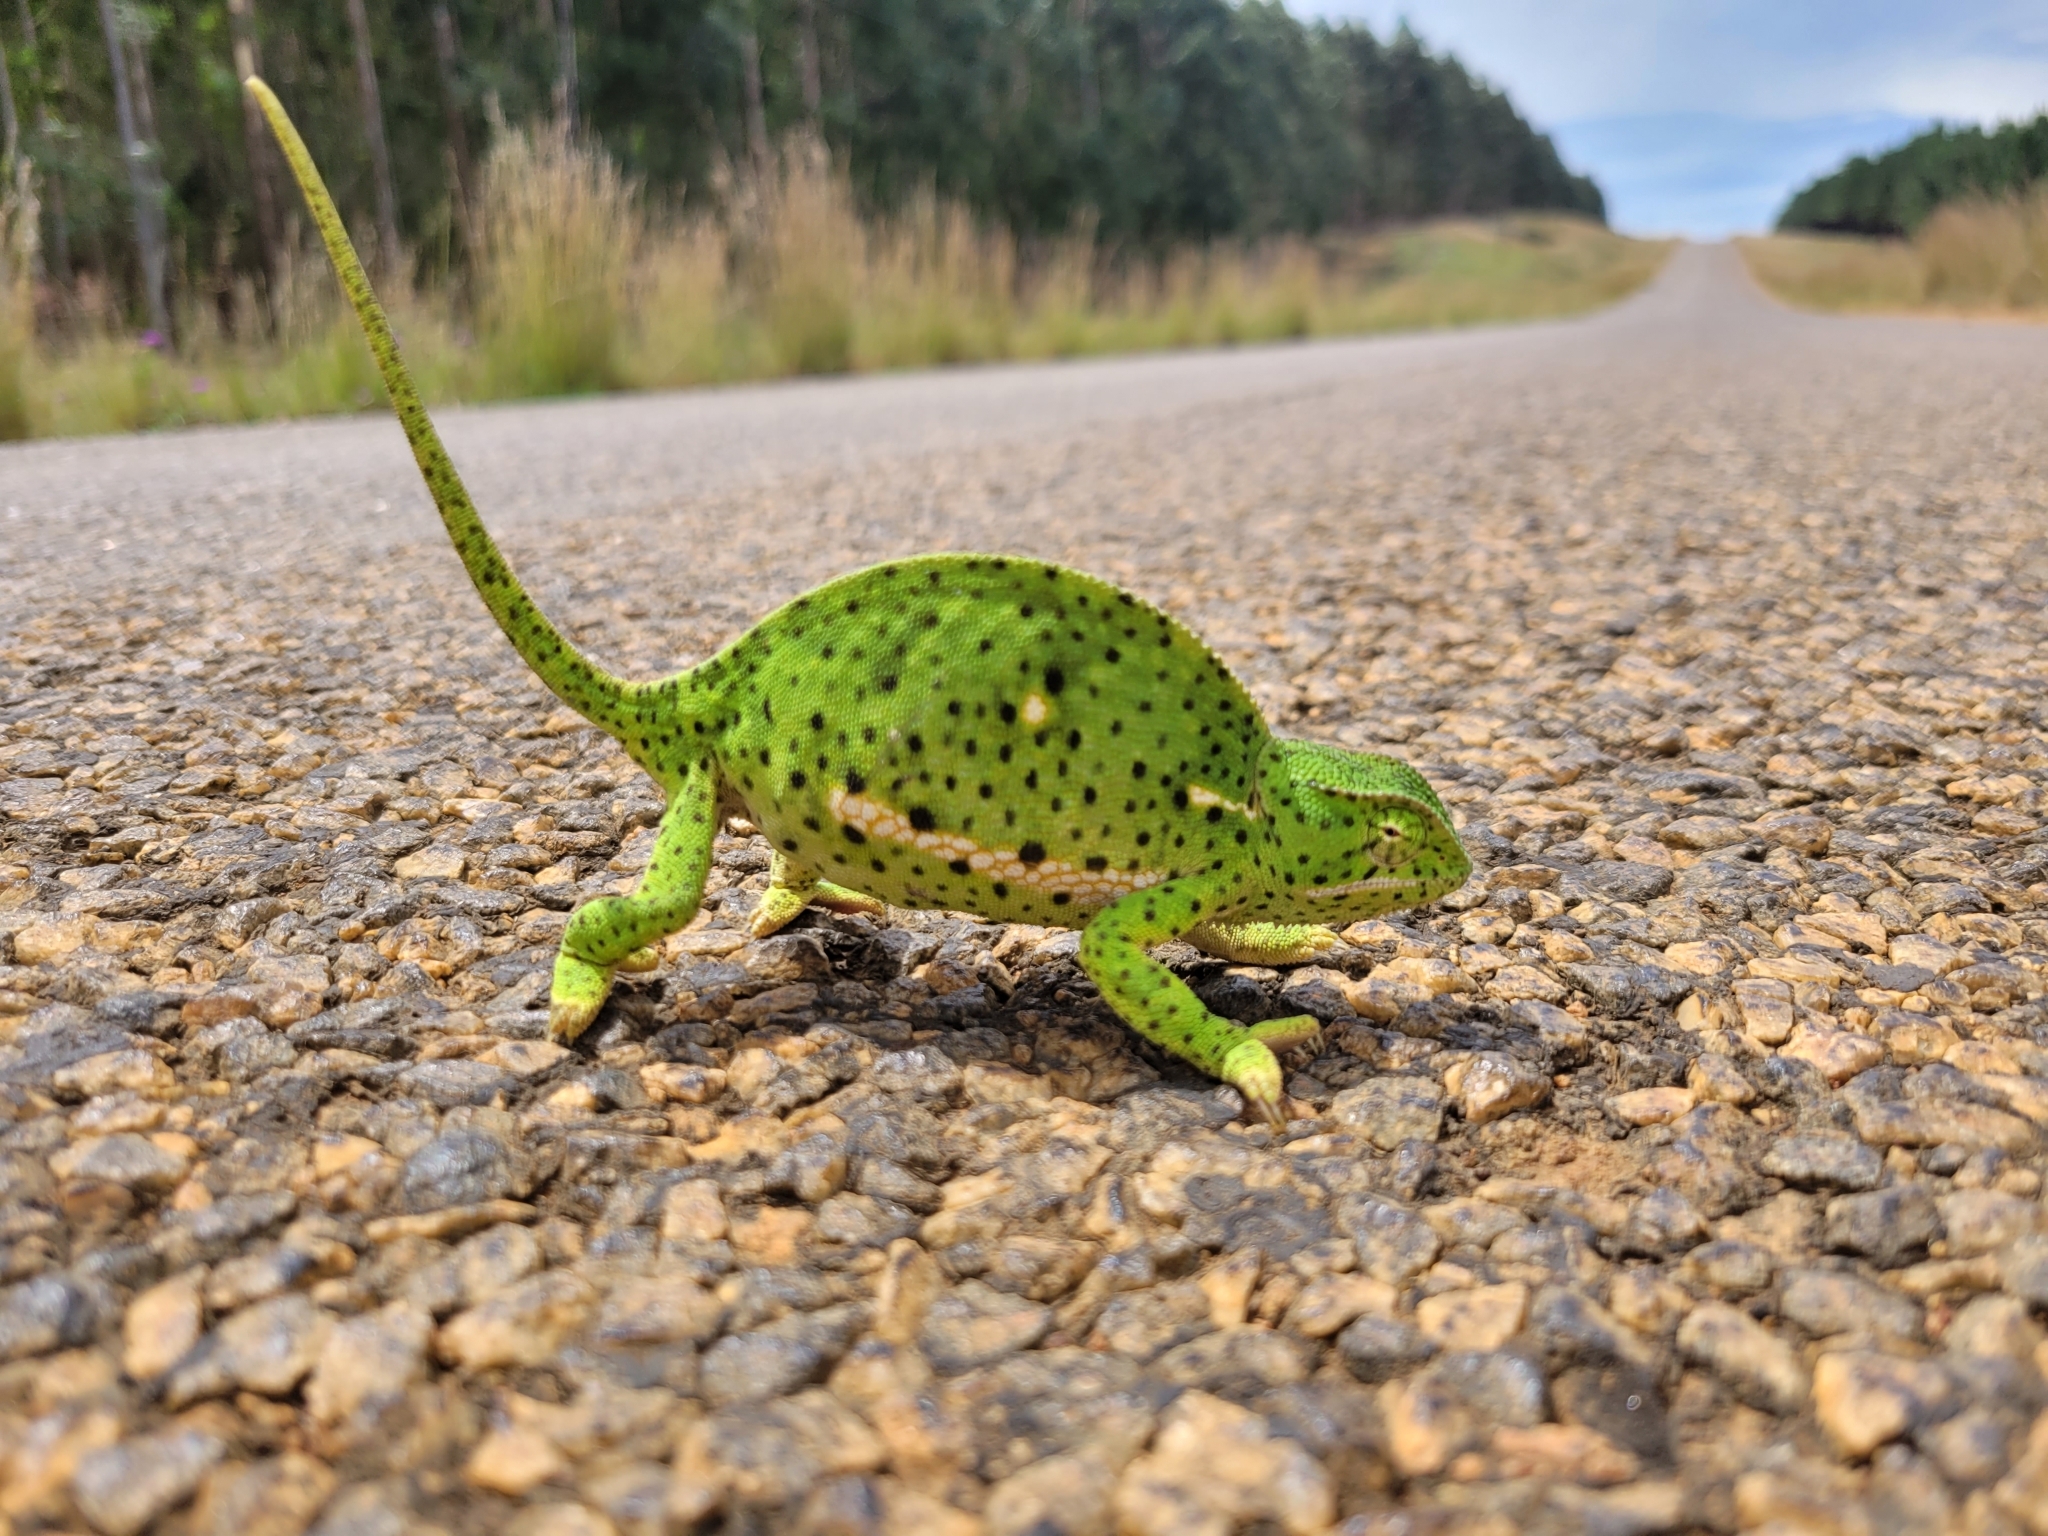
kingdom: Animalia
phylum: Chordata
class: Squamata
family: Chamaeleonidae
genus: Chamaeleo
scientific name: Chamaeleo dilepis
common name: Flapneck chameleon
